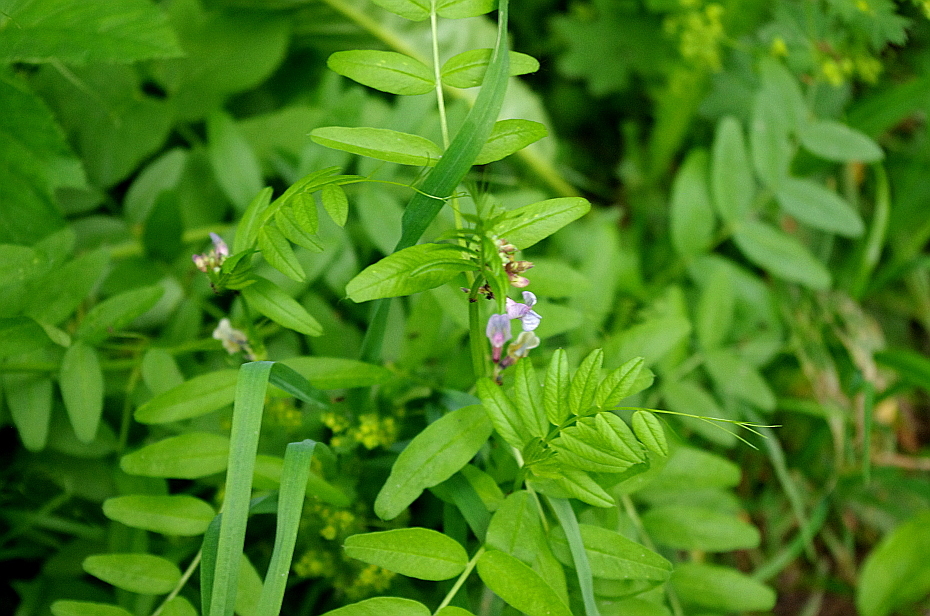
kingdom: Plantae
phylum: Tracheophyta
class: Magnoliopsida
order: Fabales
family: Fabaceae
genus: Vicia
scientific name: Vicia sepium
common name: Bush vetch
